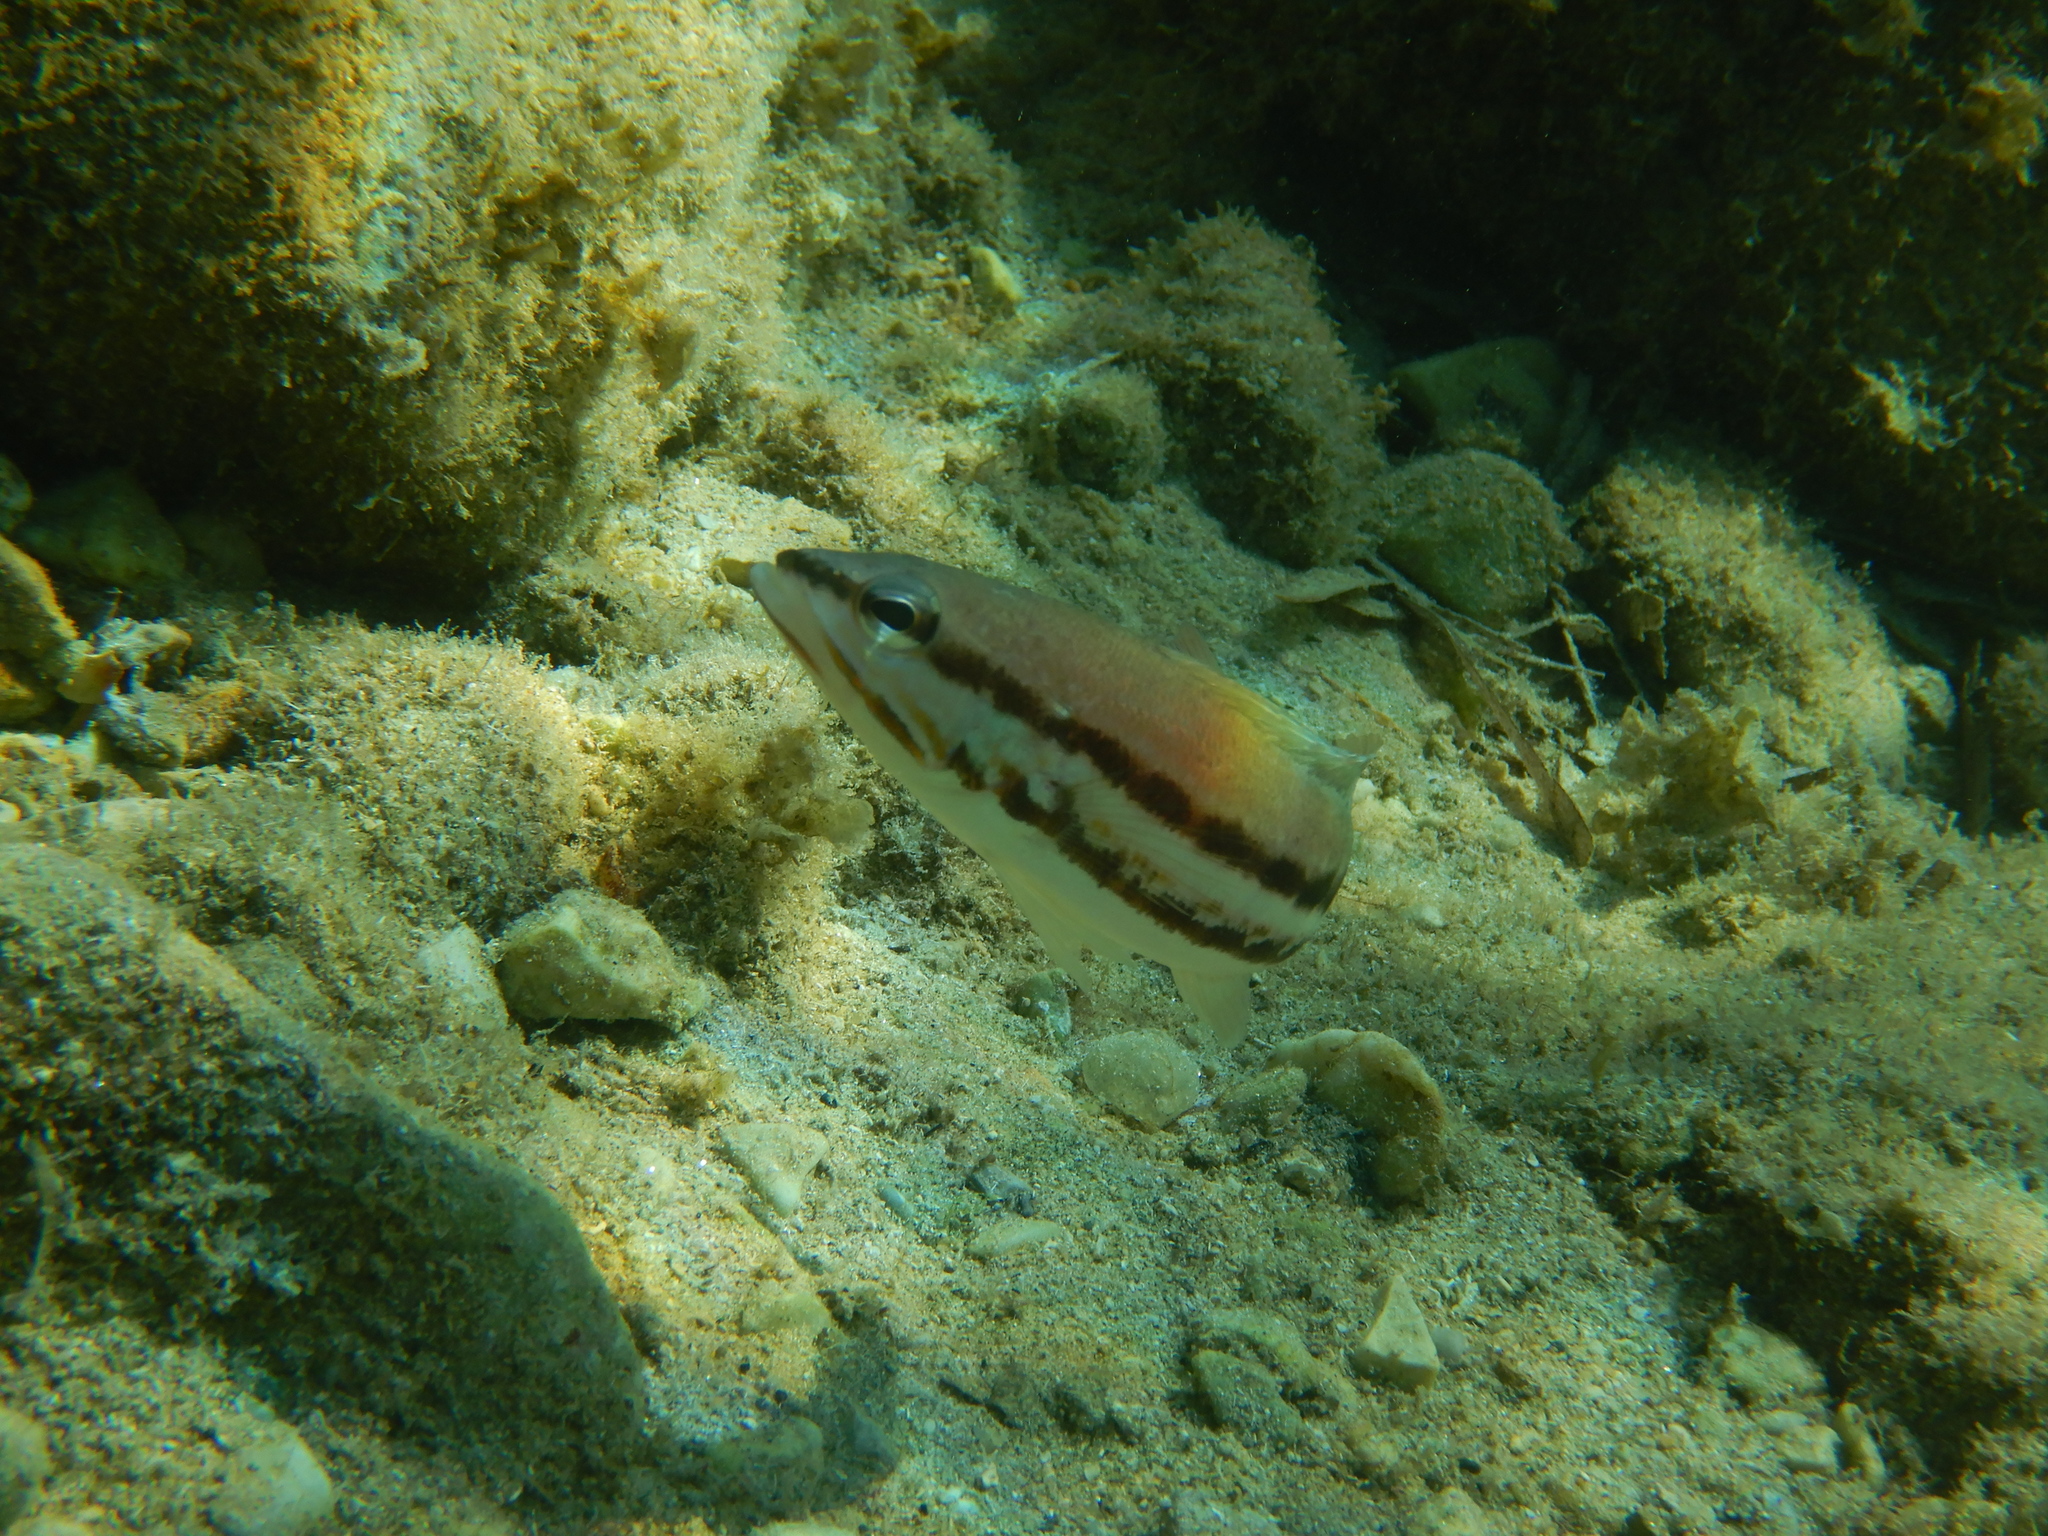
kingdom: Animalia
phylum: Chordata
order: Perciformes
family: Serranidae
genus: Serranus
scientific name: Serranus cabrilla
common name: Comber
